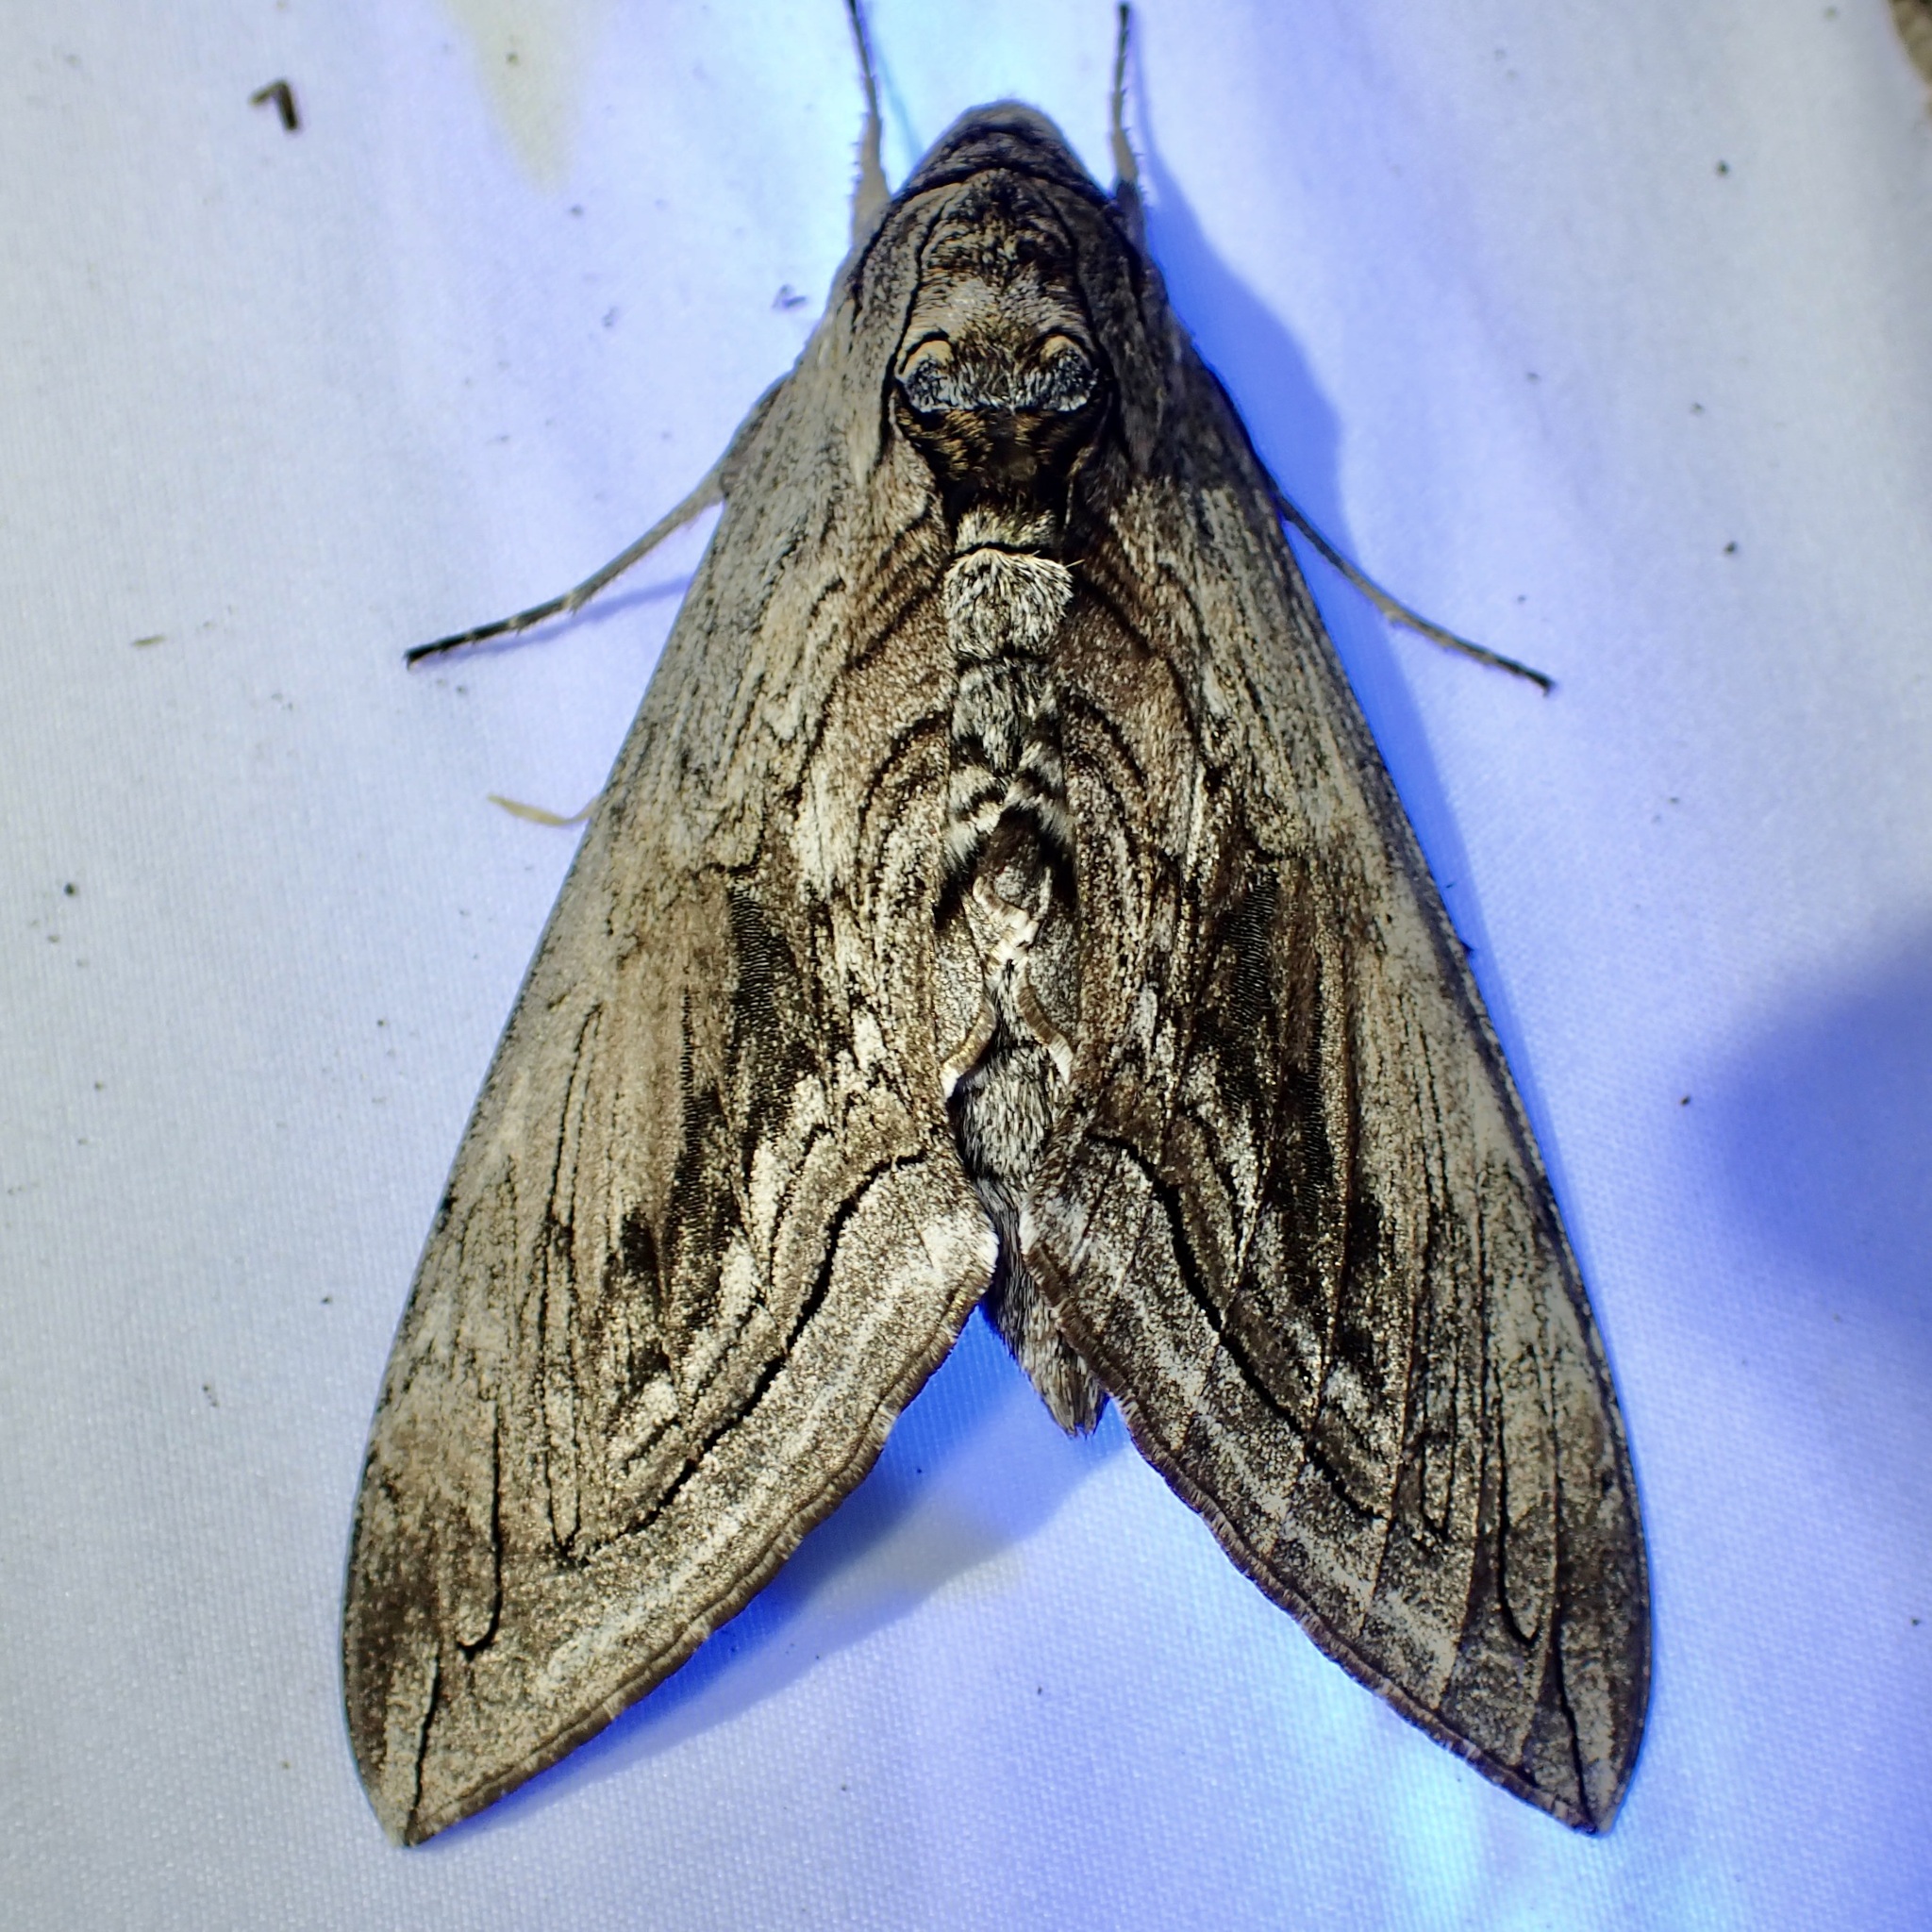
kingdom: Animalia
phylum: Arthropoda
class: Insecta
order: Lepidoptera
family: Sphingidae
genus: Manduca
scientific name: Manduca quinquemaculatus
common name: Five-spotted hawk-moth
